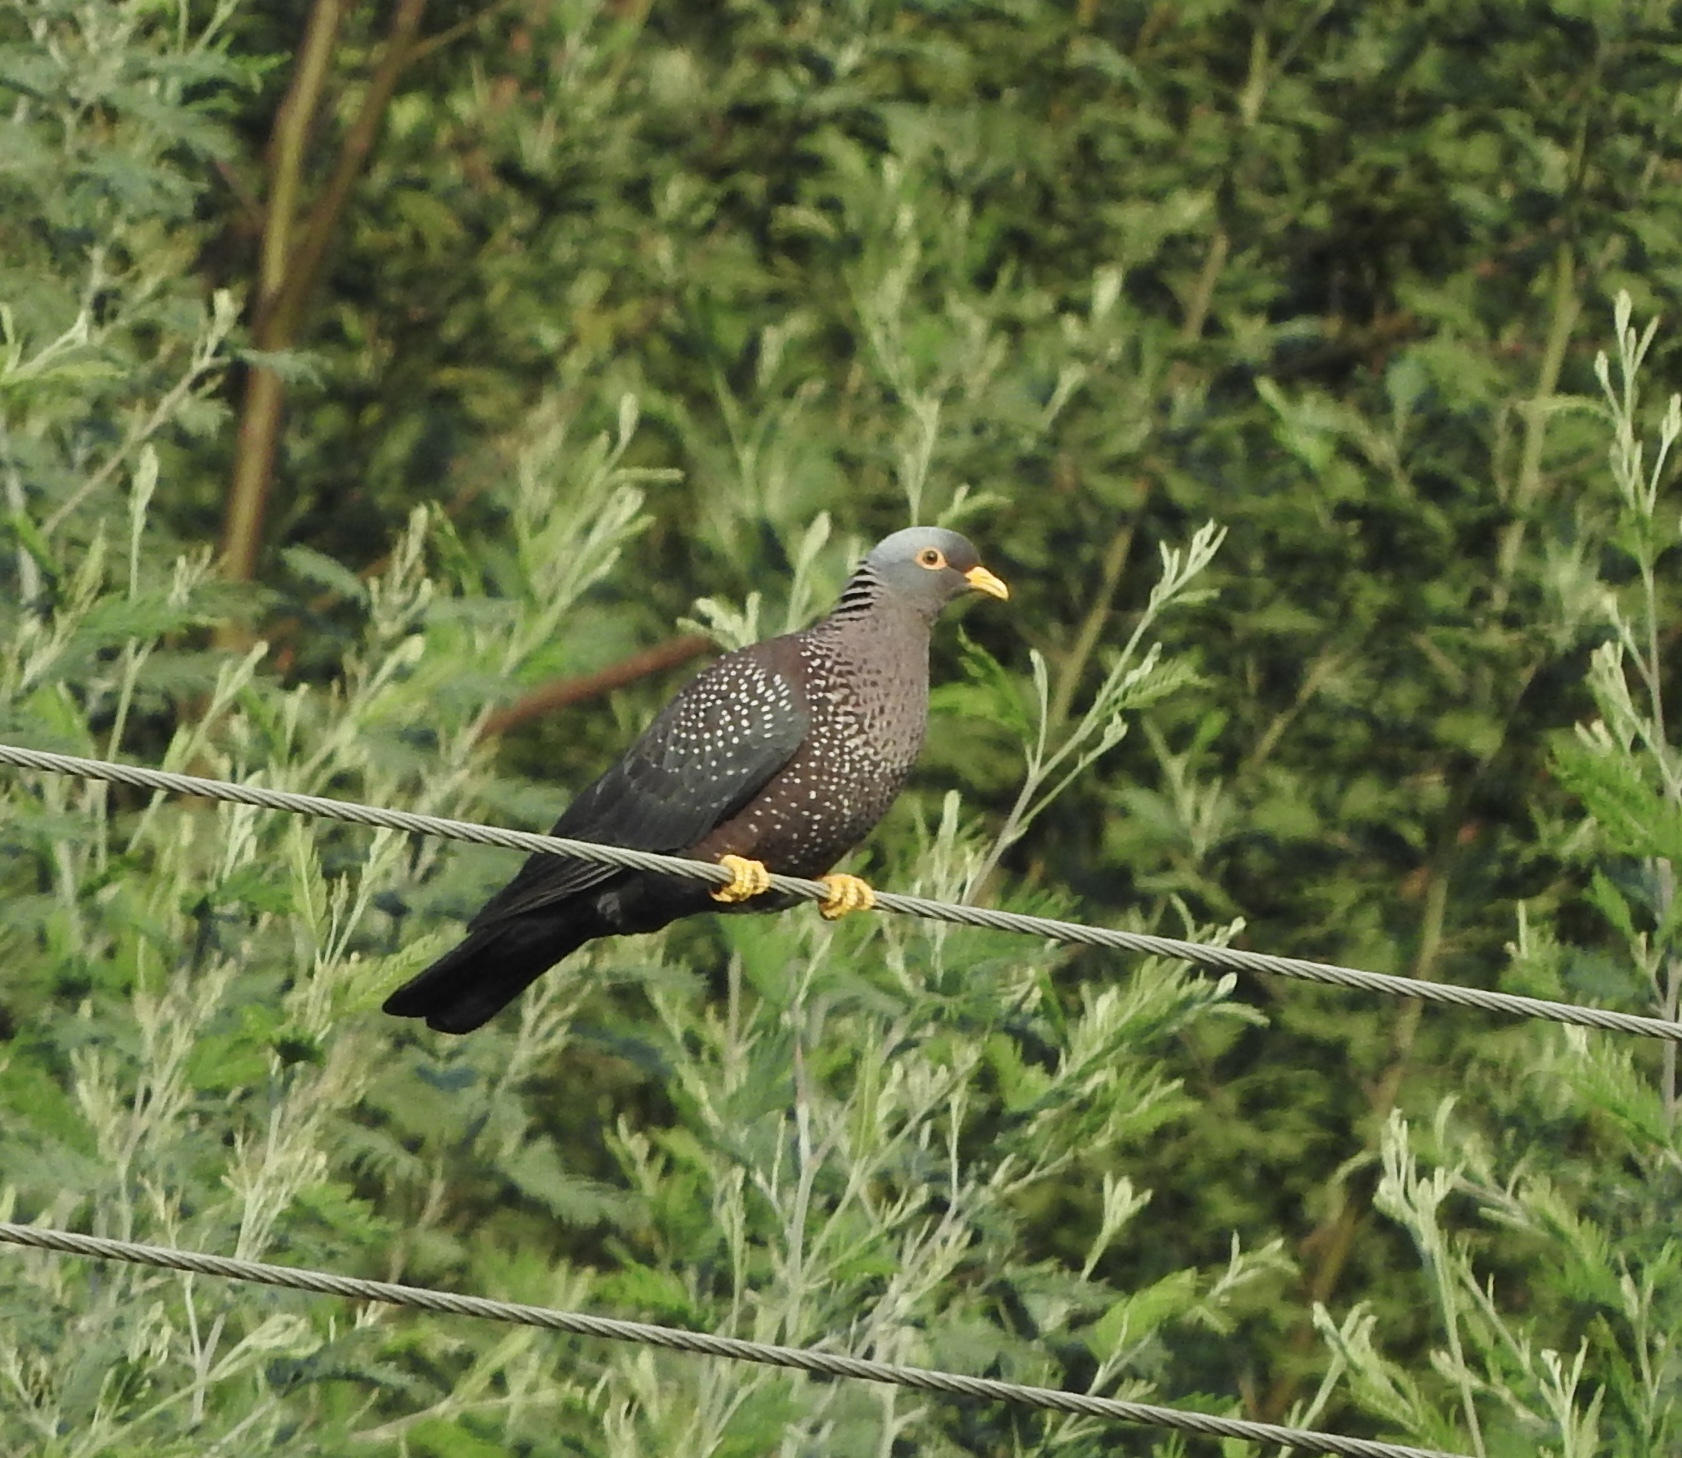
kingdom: Animalia
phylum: Chordata
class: Aves
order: Columbiformes
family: Columbidae
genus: Columba
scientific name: Columba arquatrix
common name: African olive pigeon
